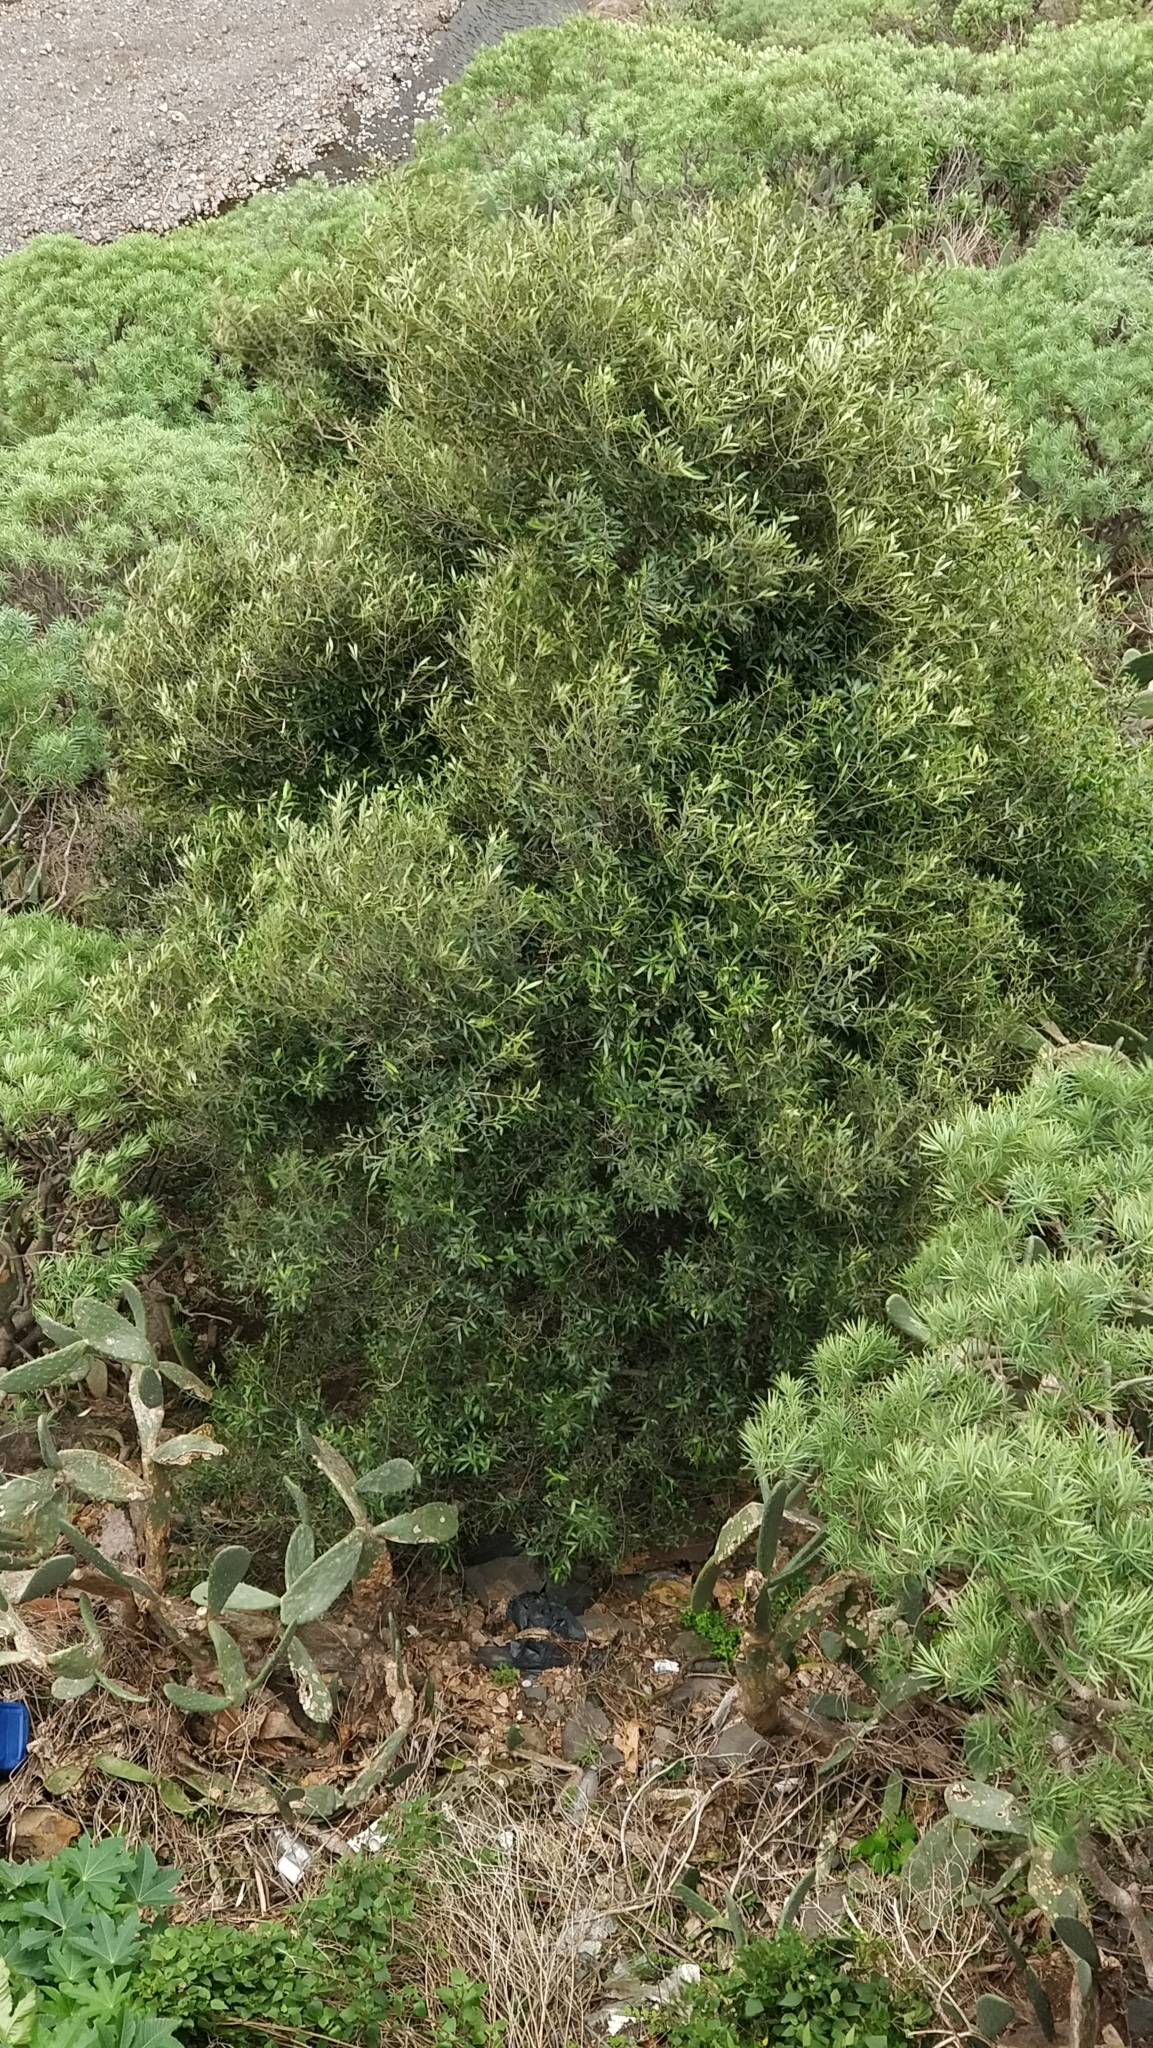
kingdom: Plantae
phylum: Tracheophyta
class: Magnoliopsida
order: Lamiales
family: Oleaceae
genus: Olea
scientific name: Olea europaea
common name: Olive
